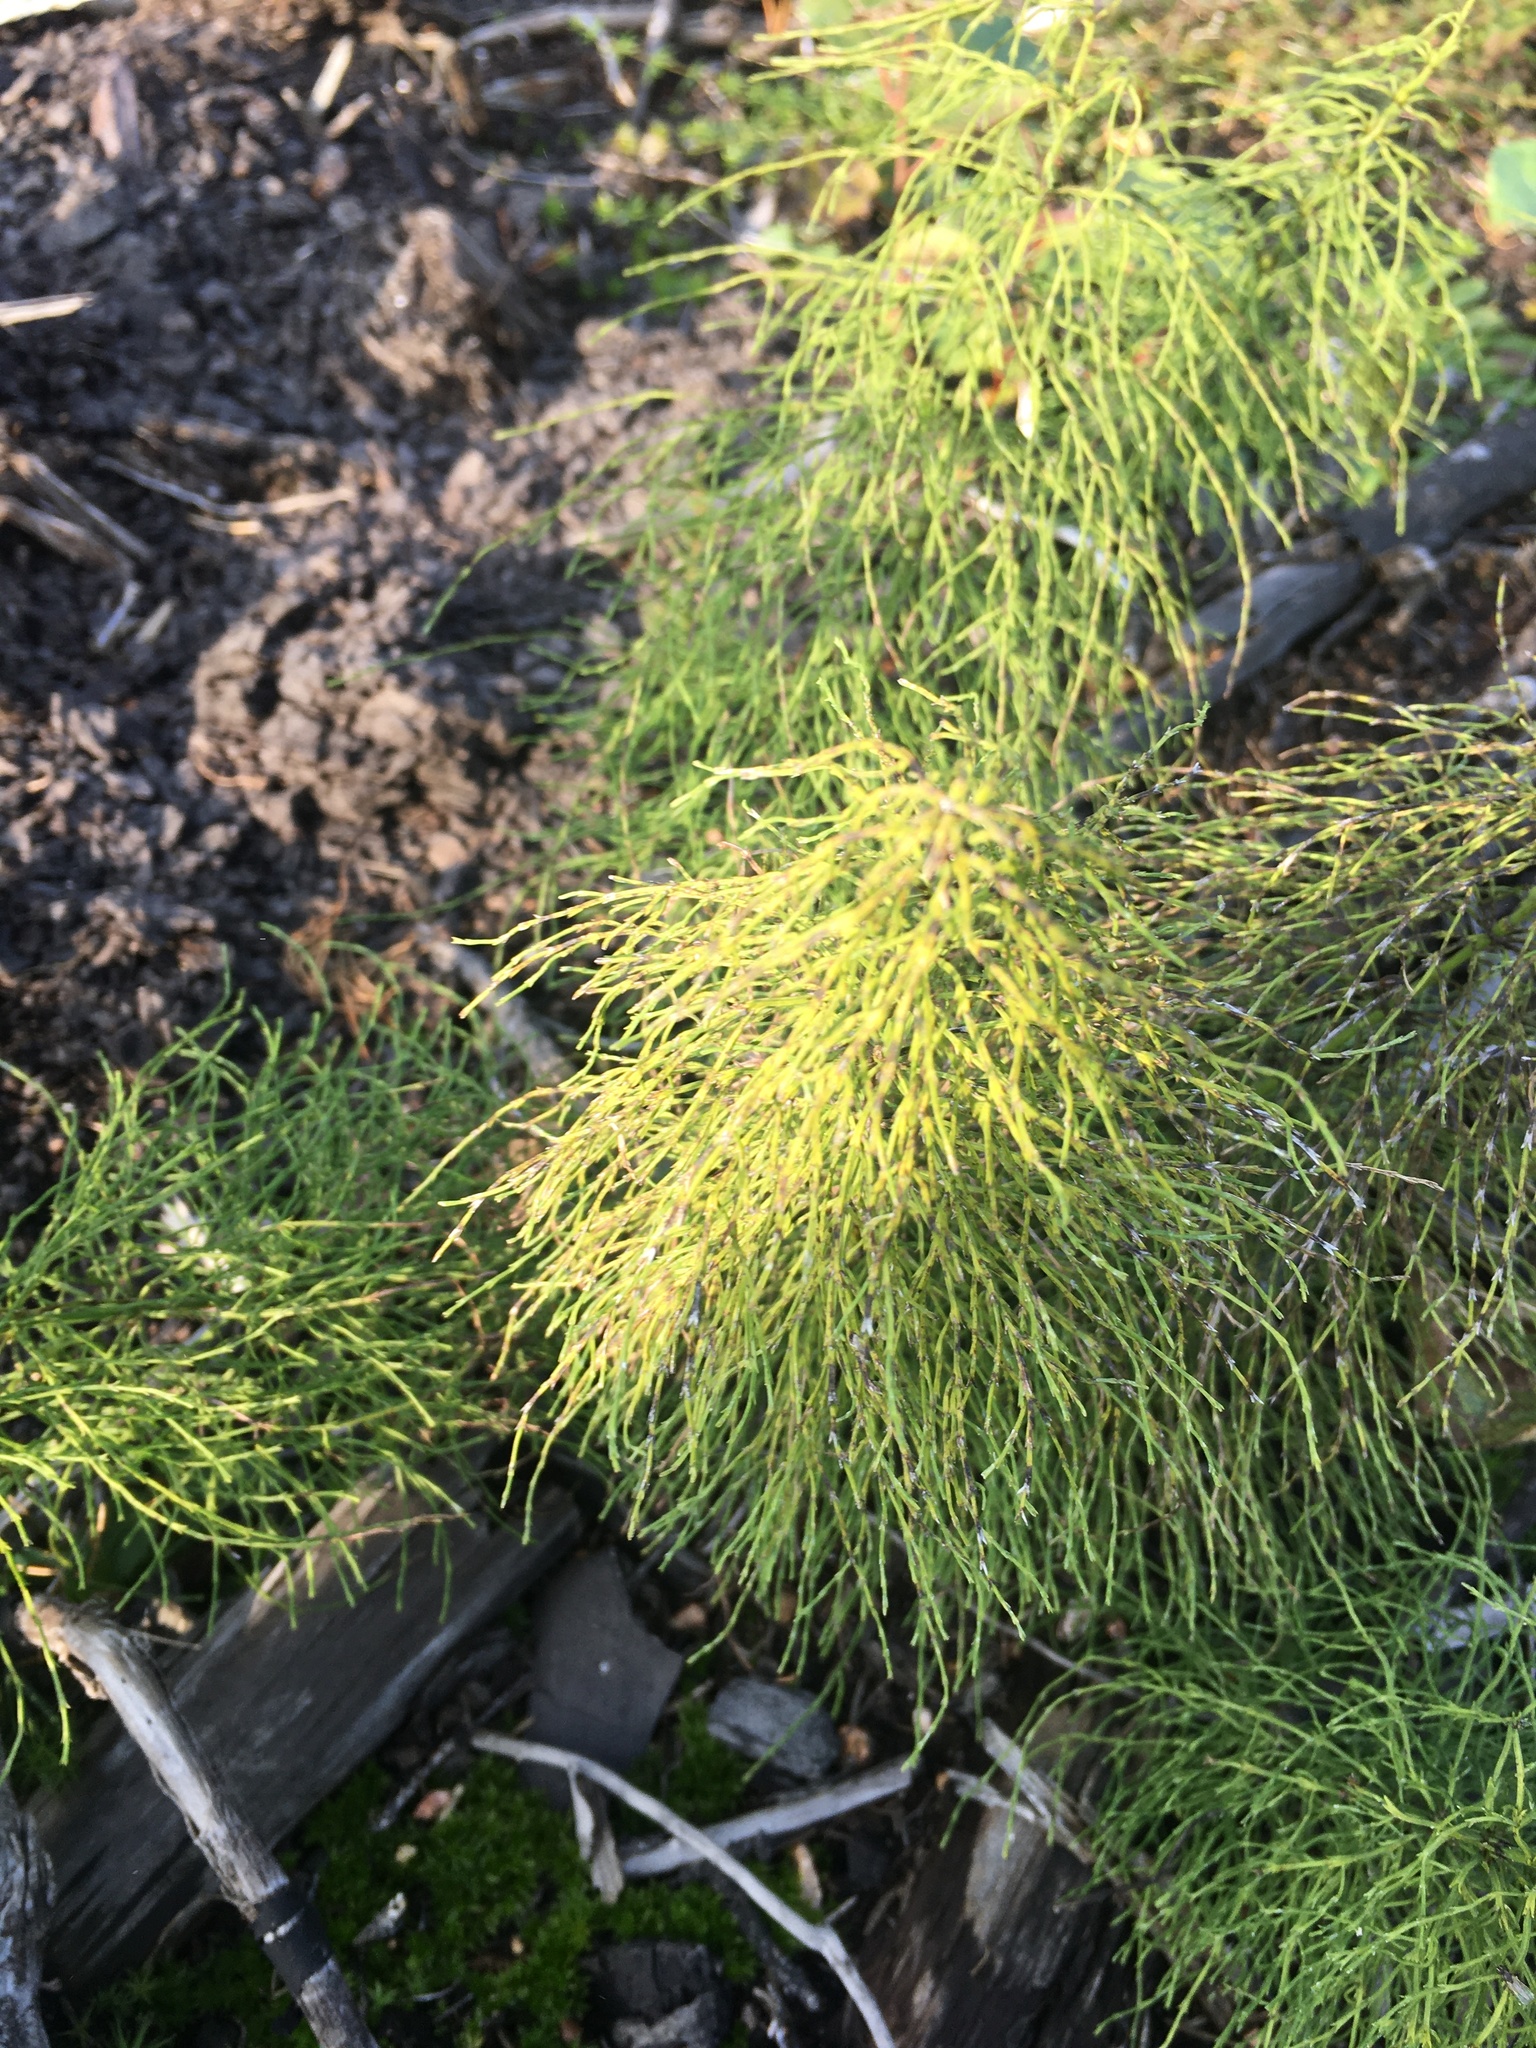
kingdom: Plantae
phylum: Tracheophyta
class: Polypodiopsida
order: Equisetales
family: Equisetaceae
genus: Equisetum
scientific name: Equisetum sylvaticum
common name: Wood horsetail
